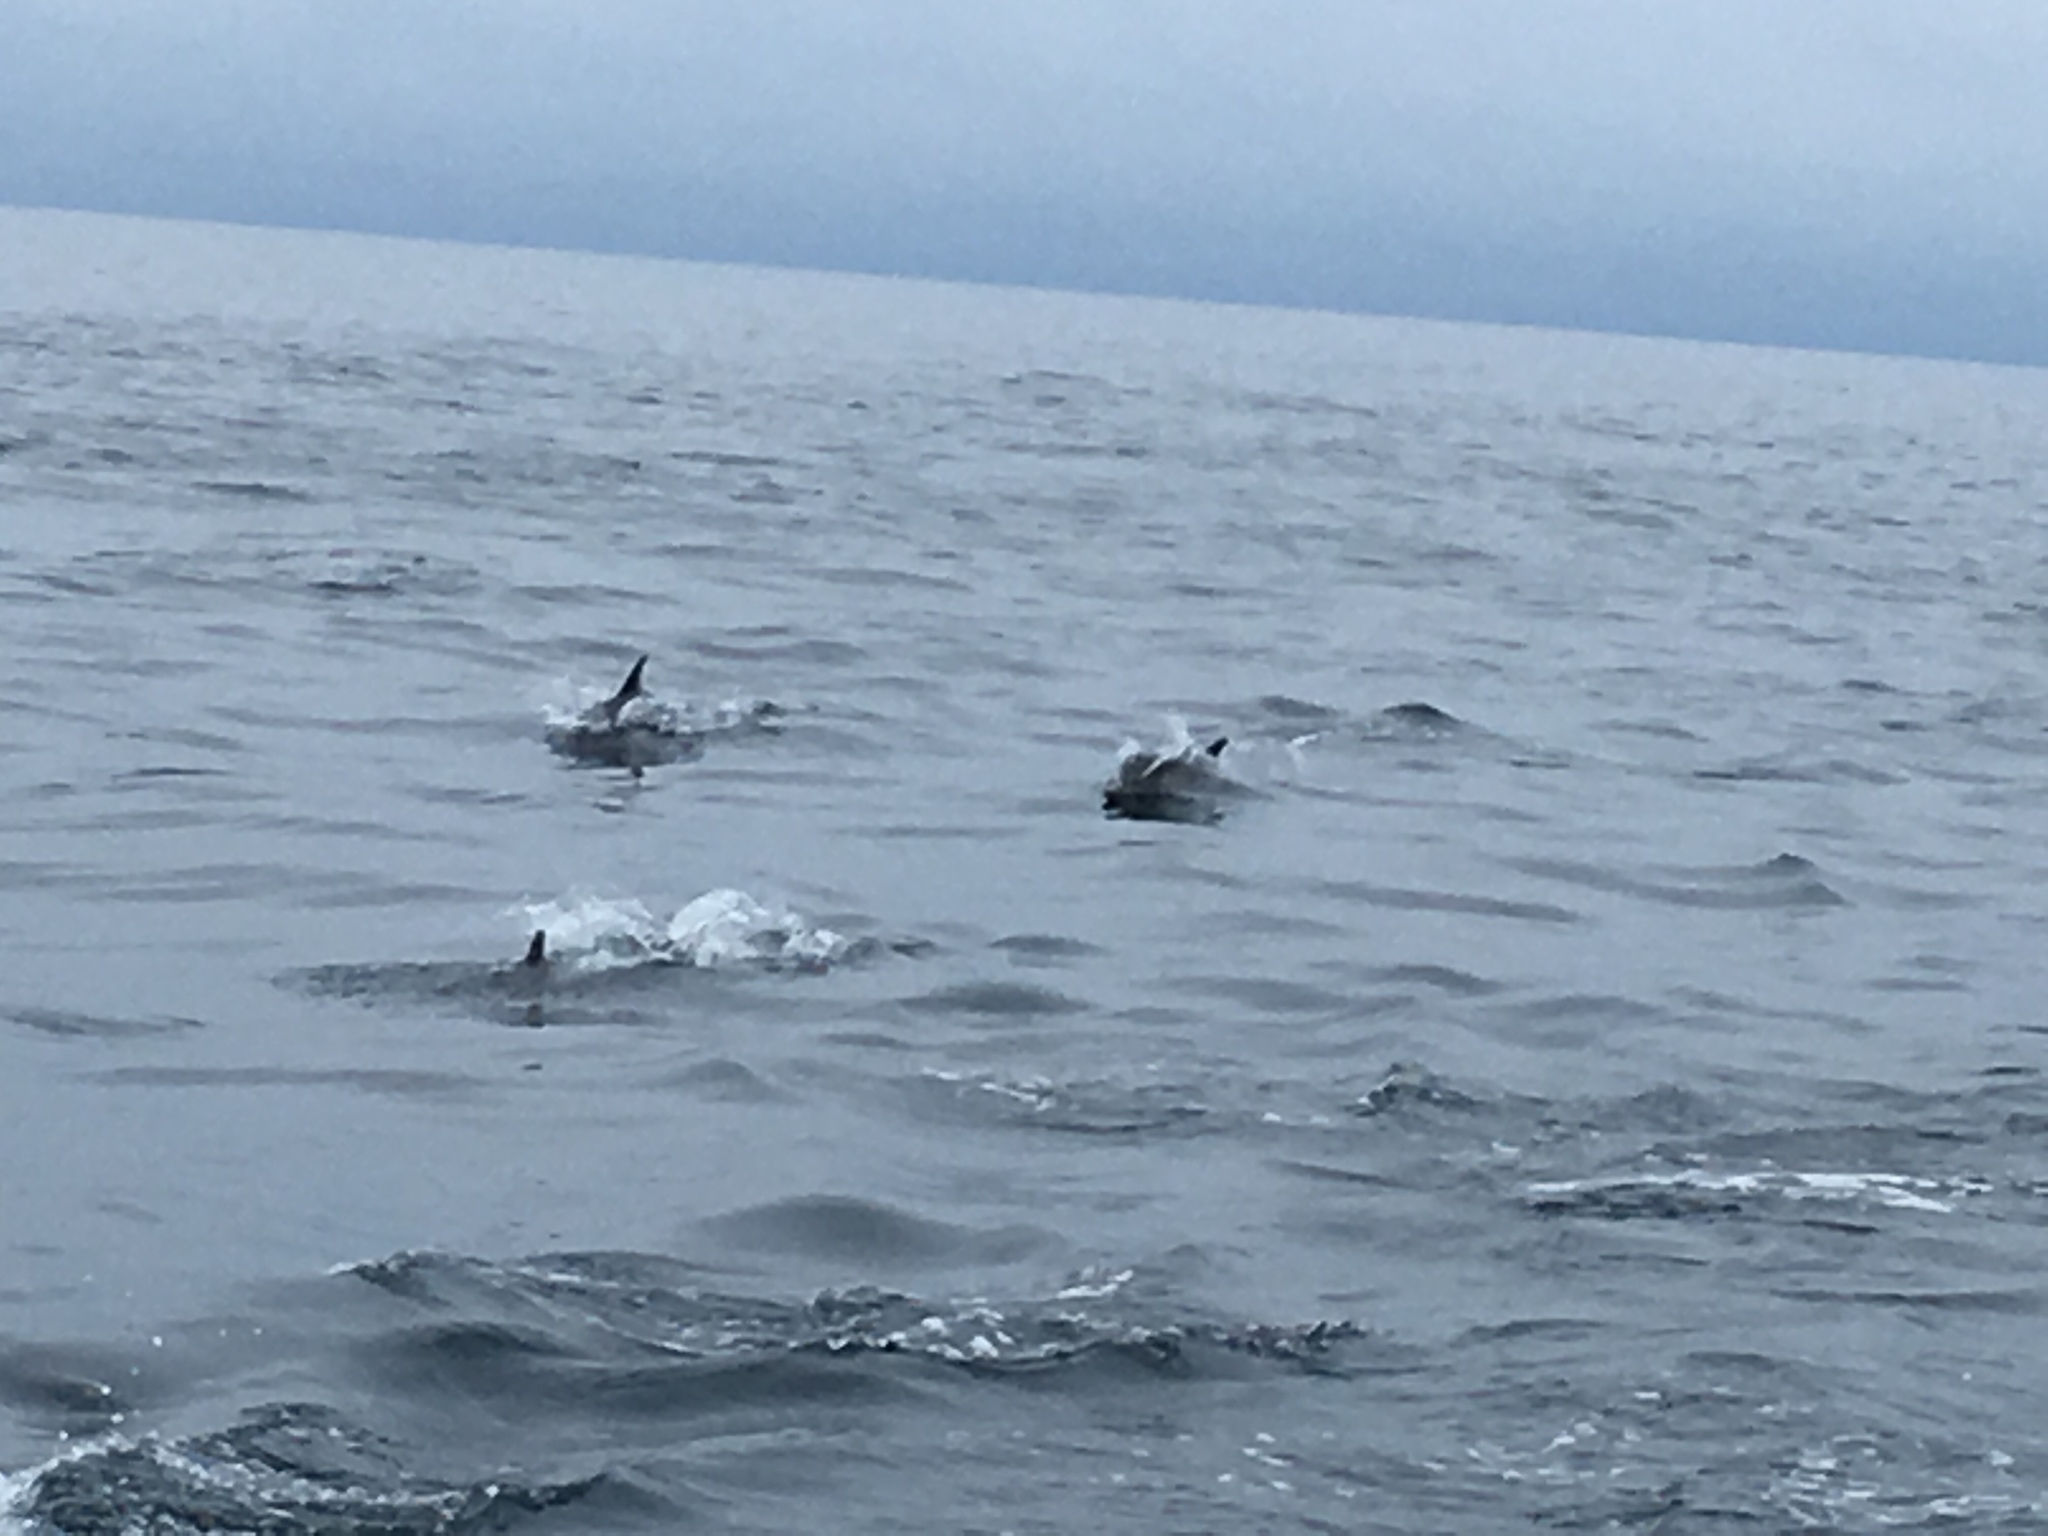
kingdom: Animalia
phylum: Chordata
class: Mammalia
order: Cetacea
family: Delphinidae
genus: Delphinus
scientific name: Delphinus delphis
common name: Common dolphin
